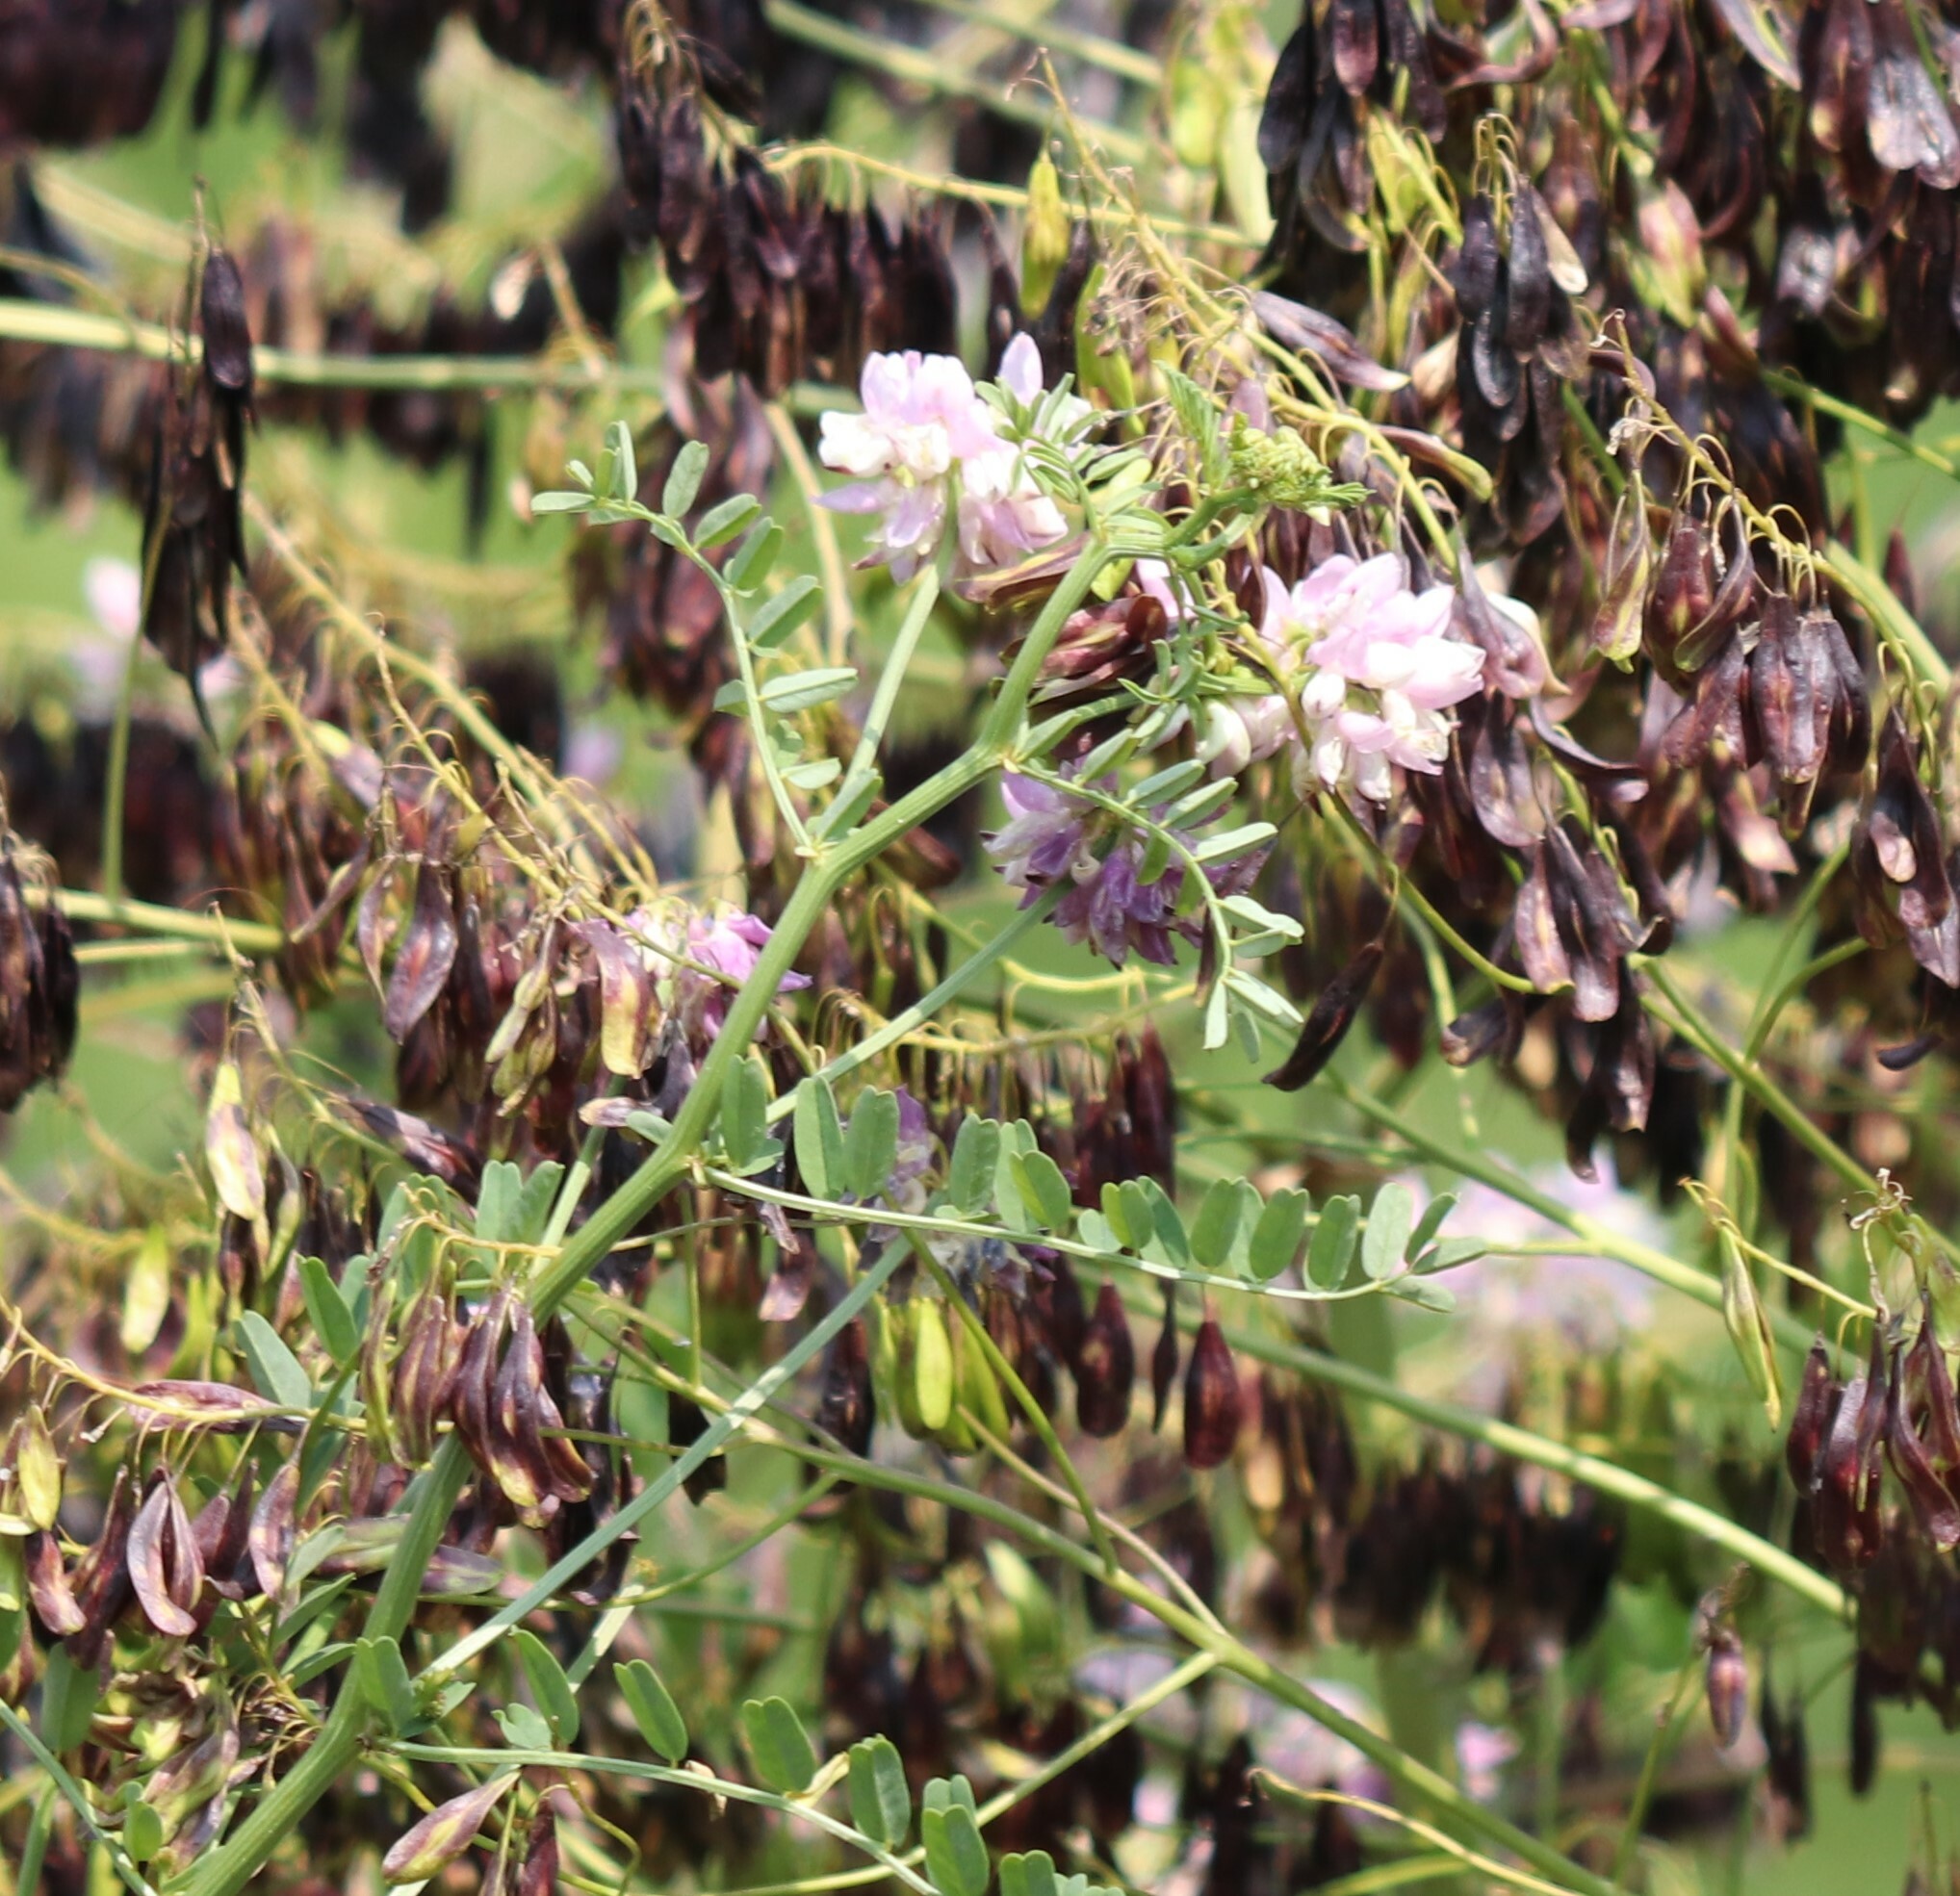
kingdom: Plantae
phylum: Tracheophyta
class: Magnoliopsida
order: Fabales
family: Fabaceae
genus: Coronilla
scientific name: Coronilla varia
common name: Crownvetch
